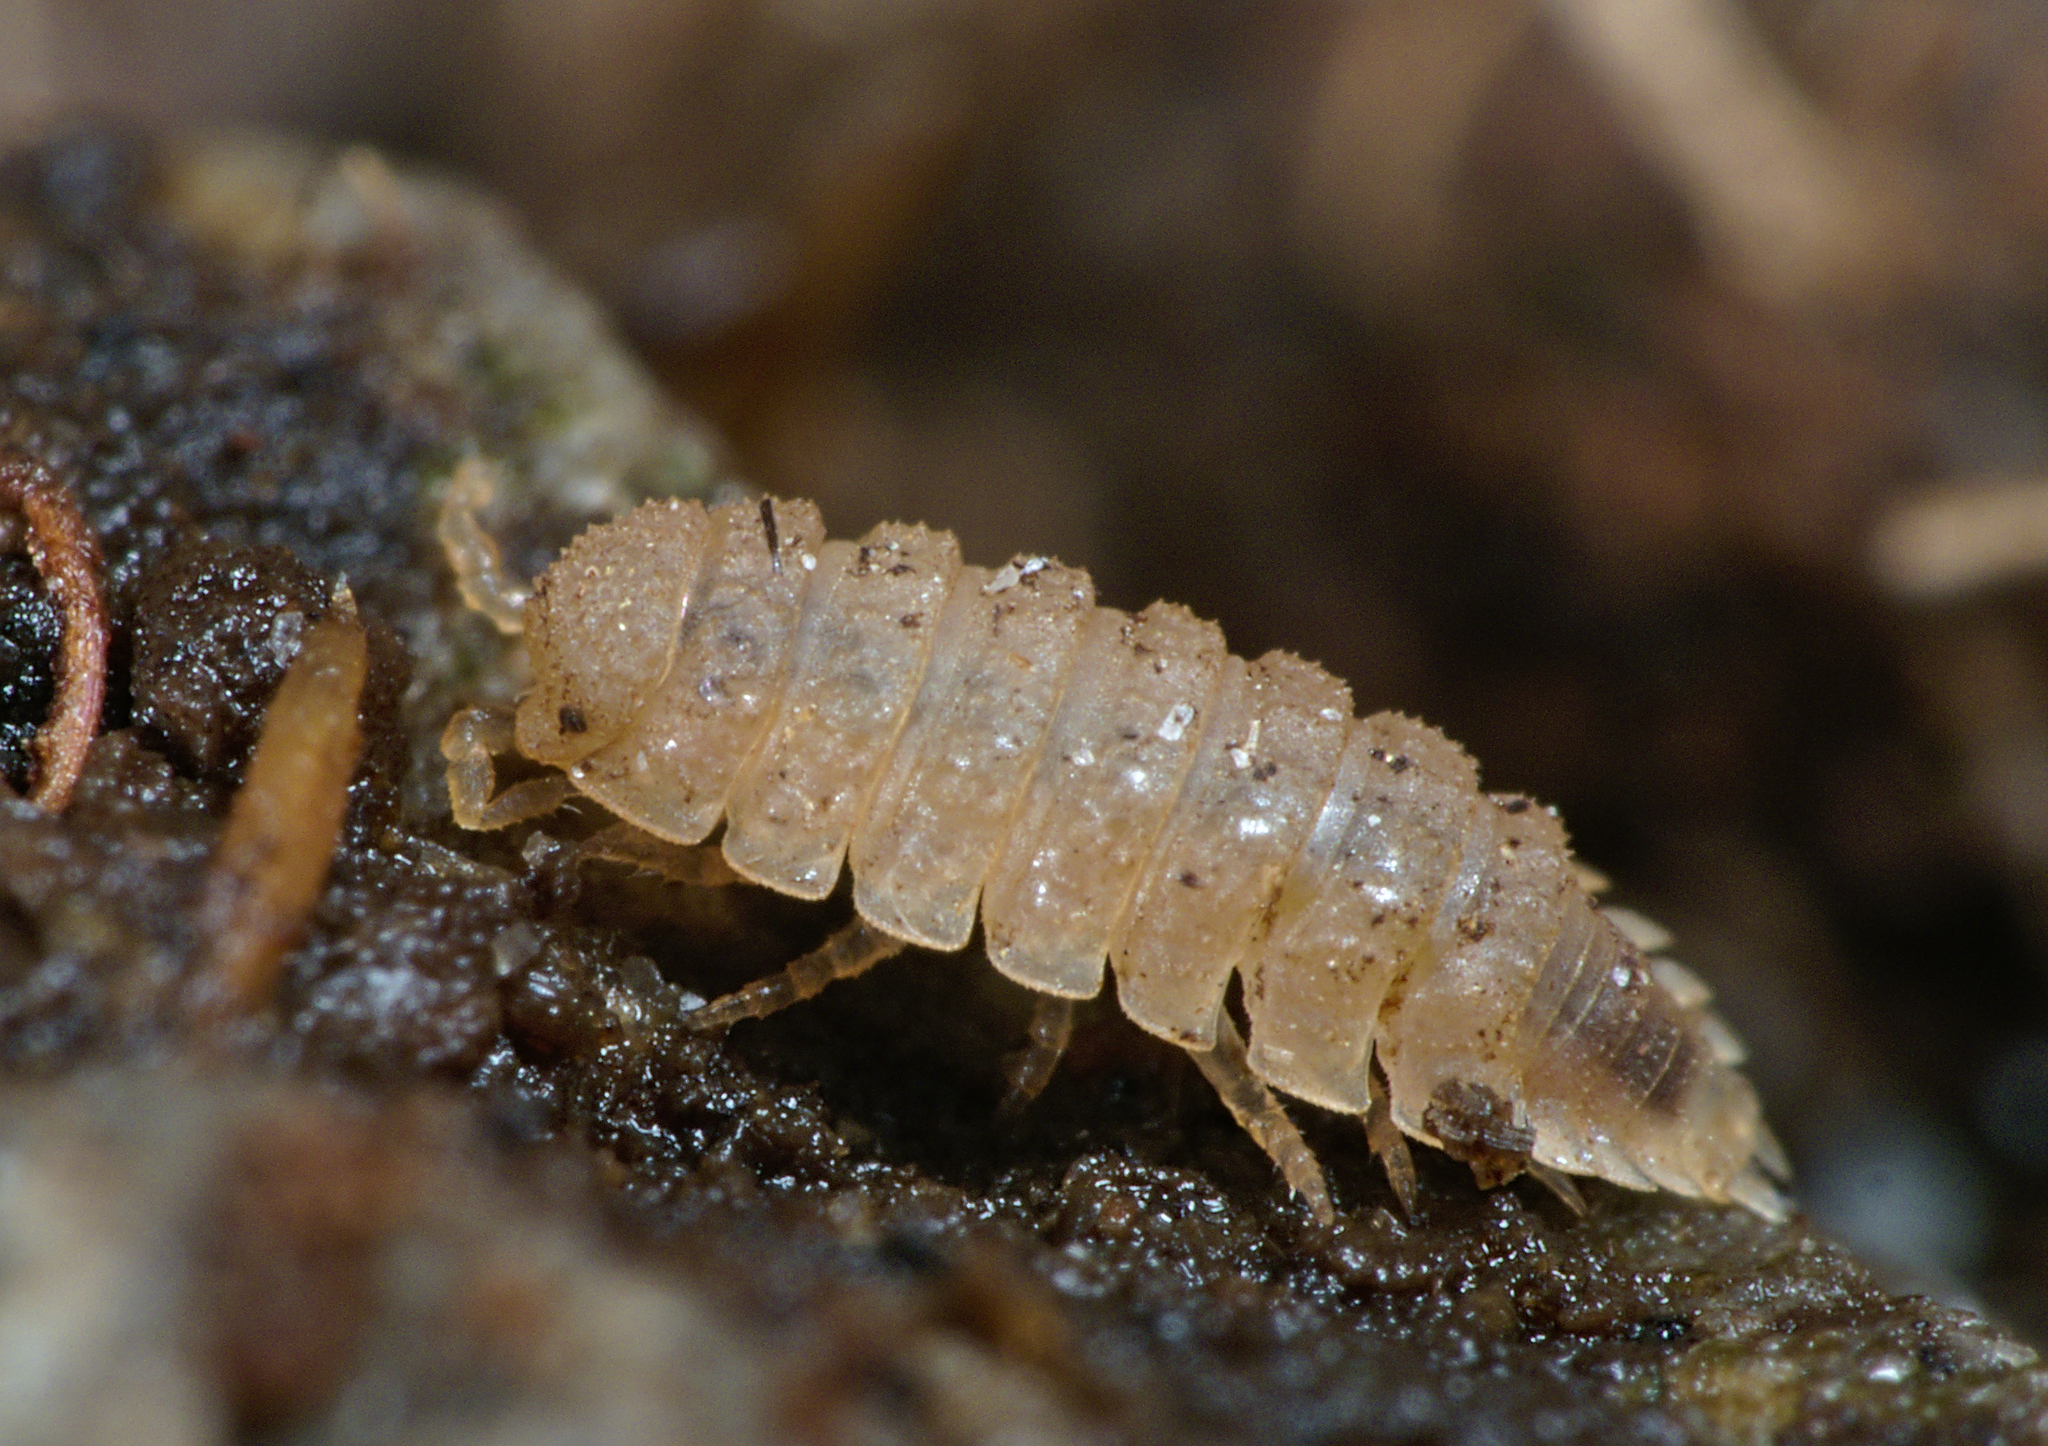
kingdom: Animalia
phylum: Arthropoda
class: Malacostraca
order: Isopoda
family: Trichoniscidae
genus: Haplophthalmus
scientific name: Haplophthalmus danicus
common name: Pillbug
